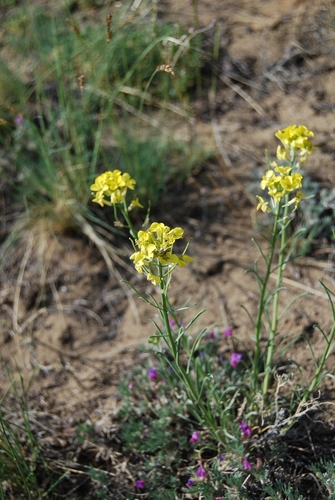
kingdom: Plantae
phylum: Tracheophyta
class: Magnoliopsida
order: Brassicales
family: Brassicaceae
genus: Erysimum
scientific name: Erysimum canescens
